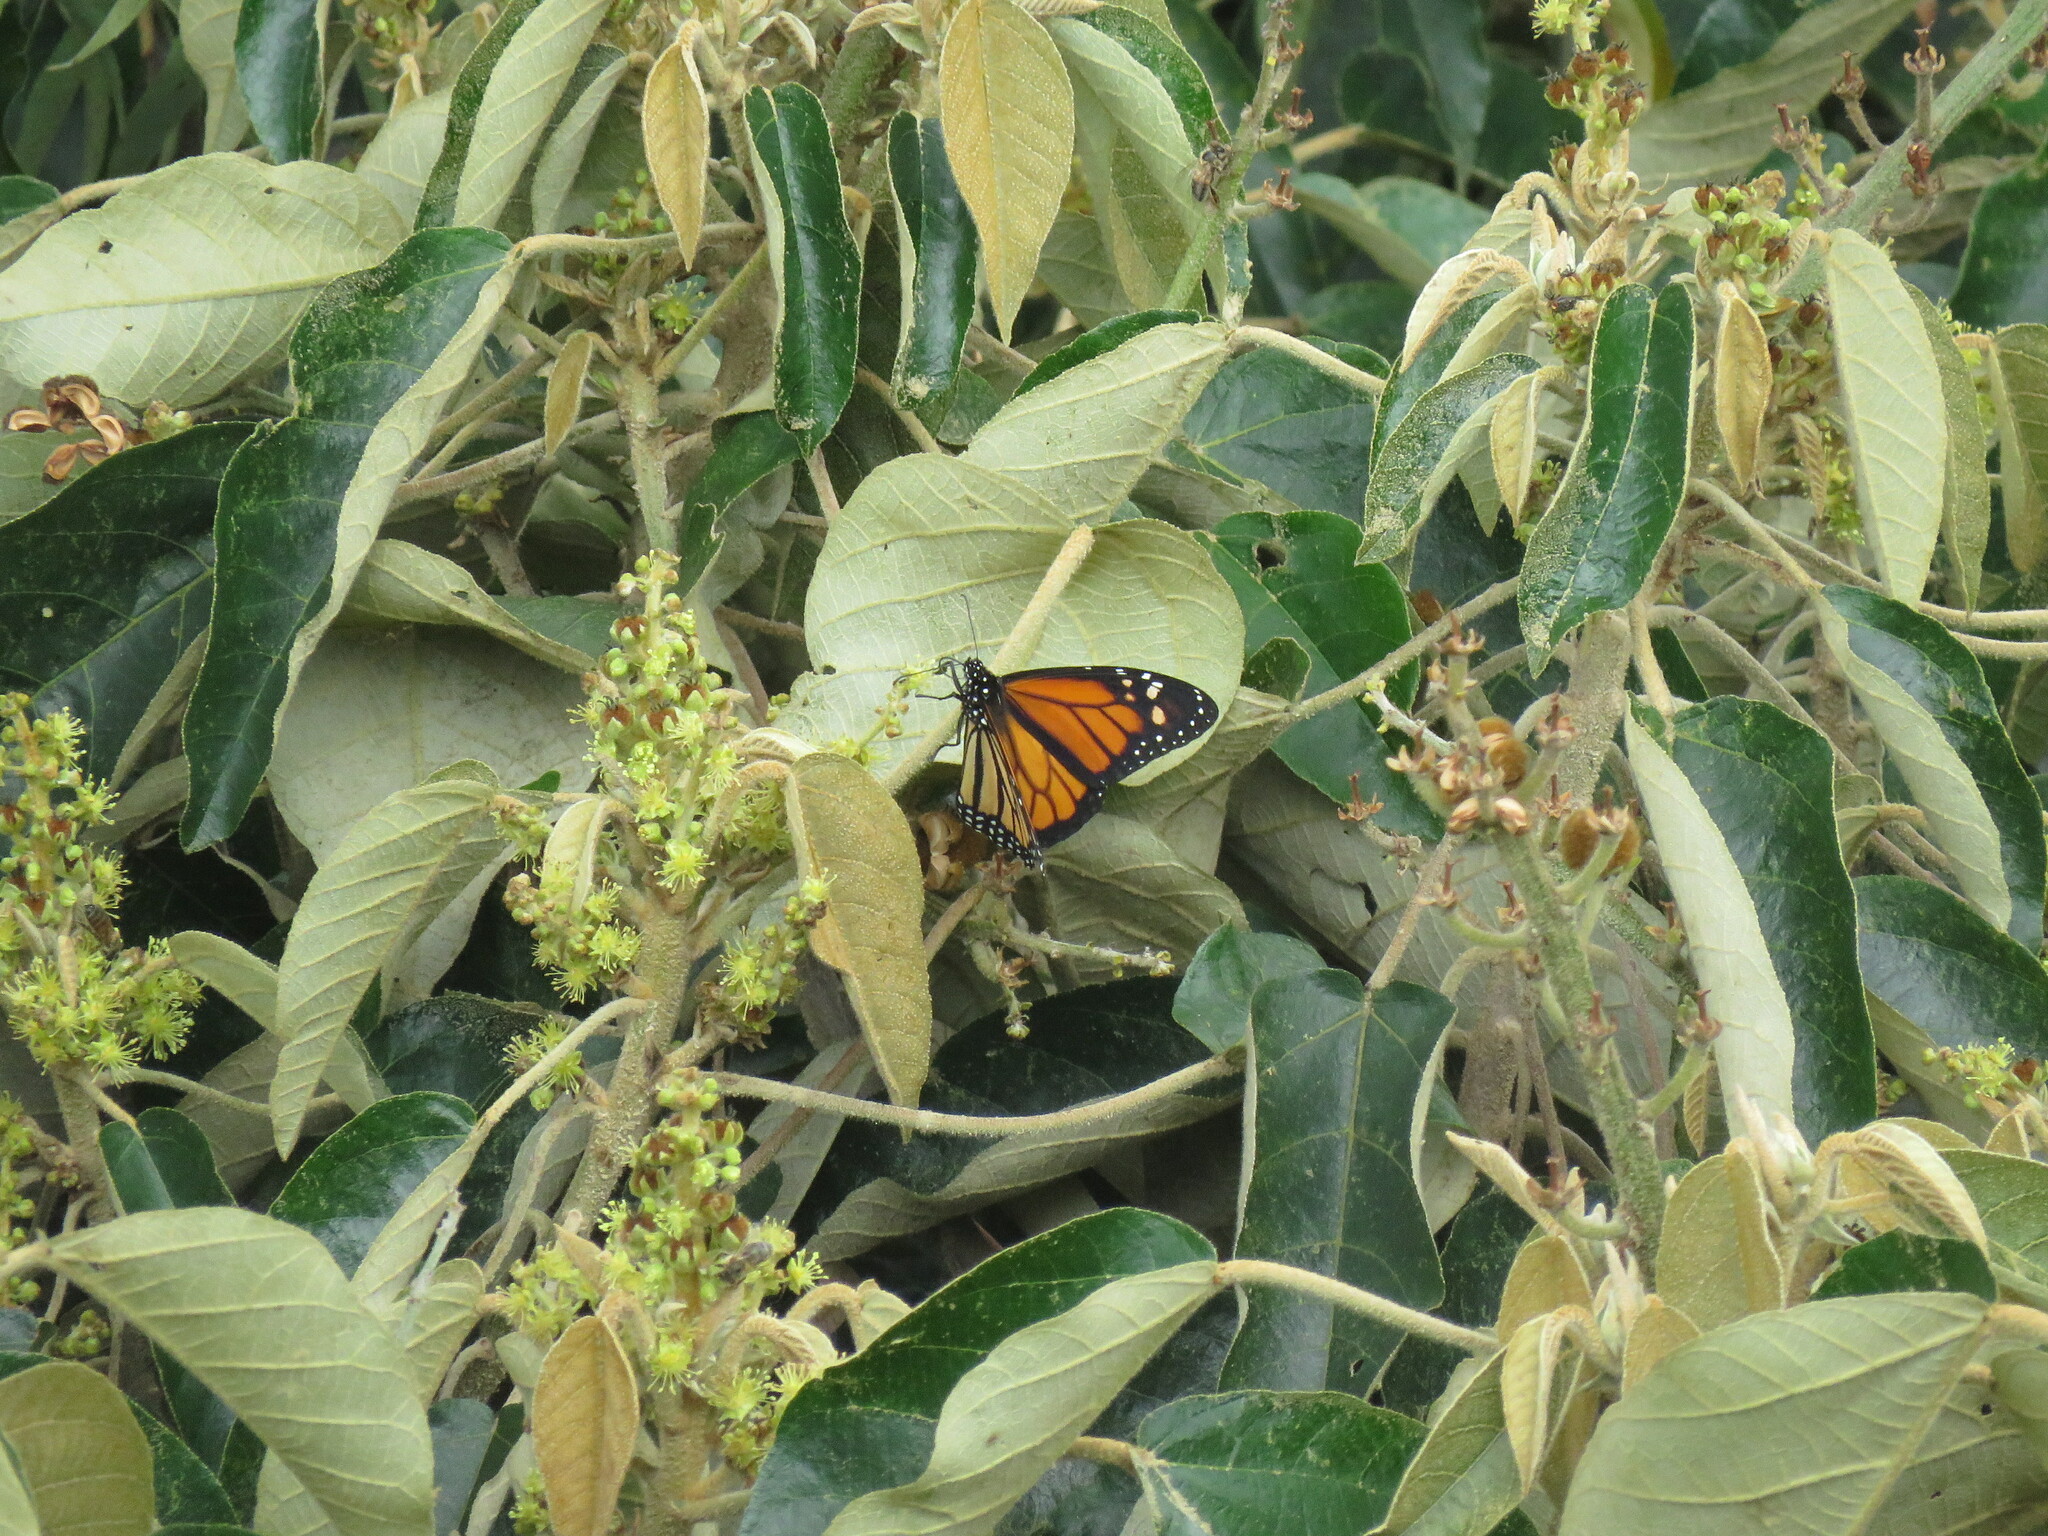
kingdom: Animalia
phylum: Arthropoda
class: Insecta
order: Lepidoptera
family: Nymphalidae
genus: Danaus
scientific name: Danaus plexippus
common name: Monarch
